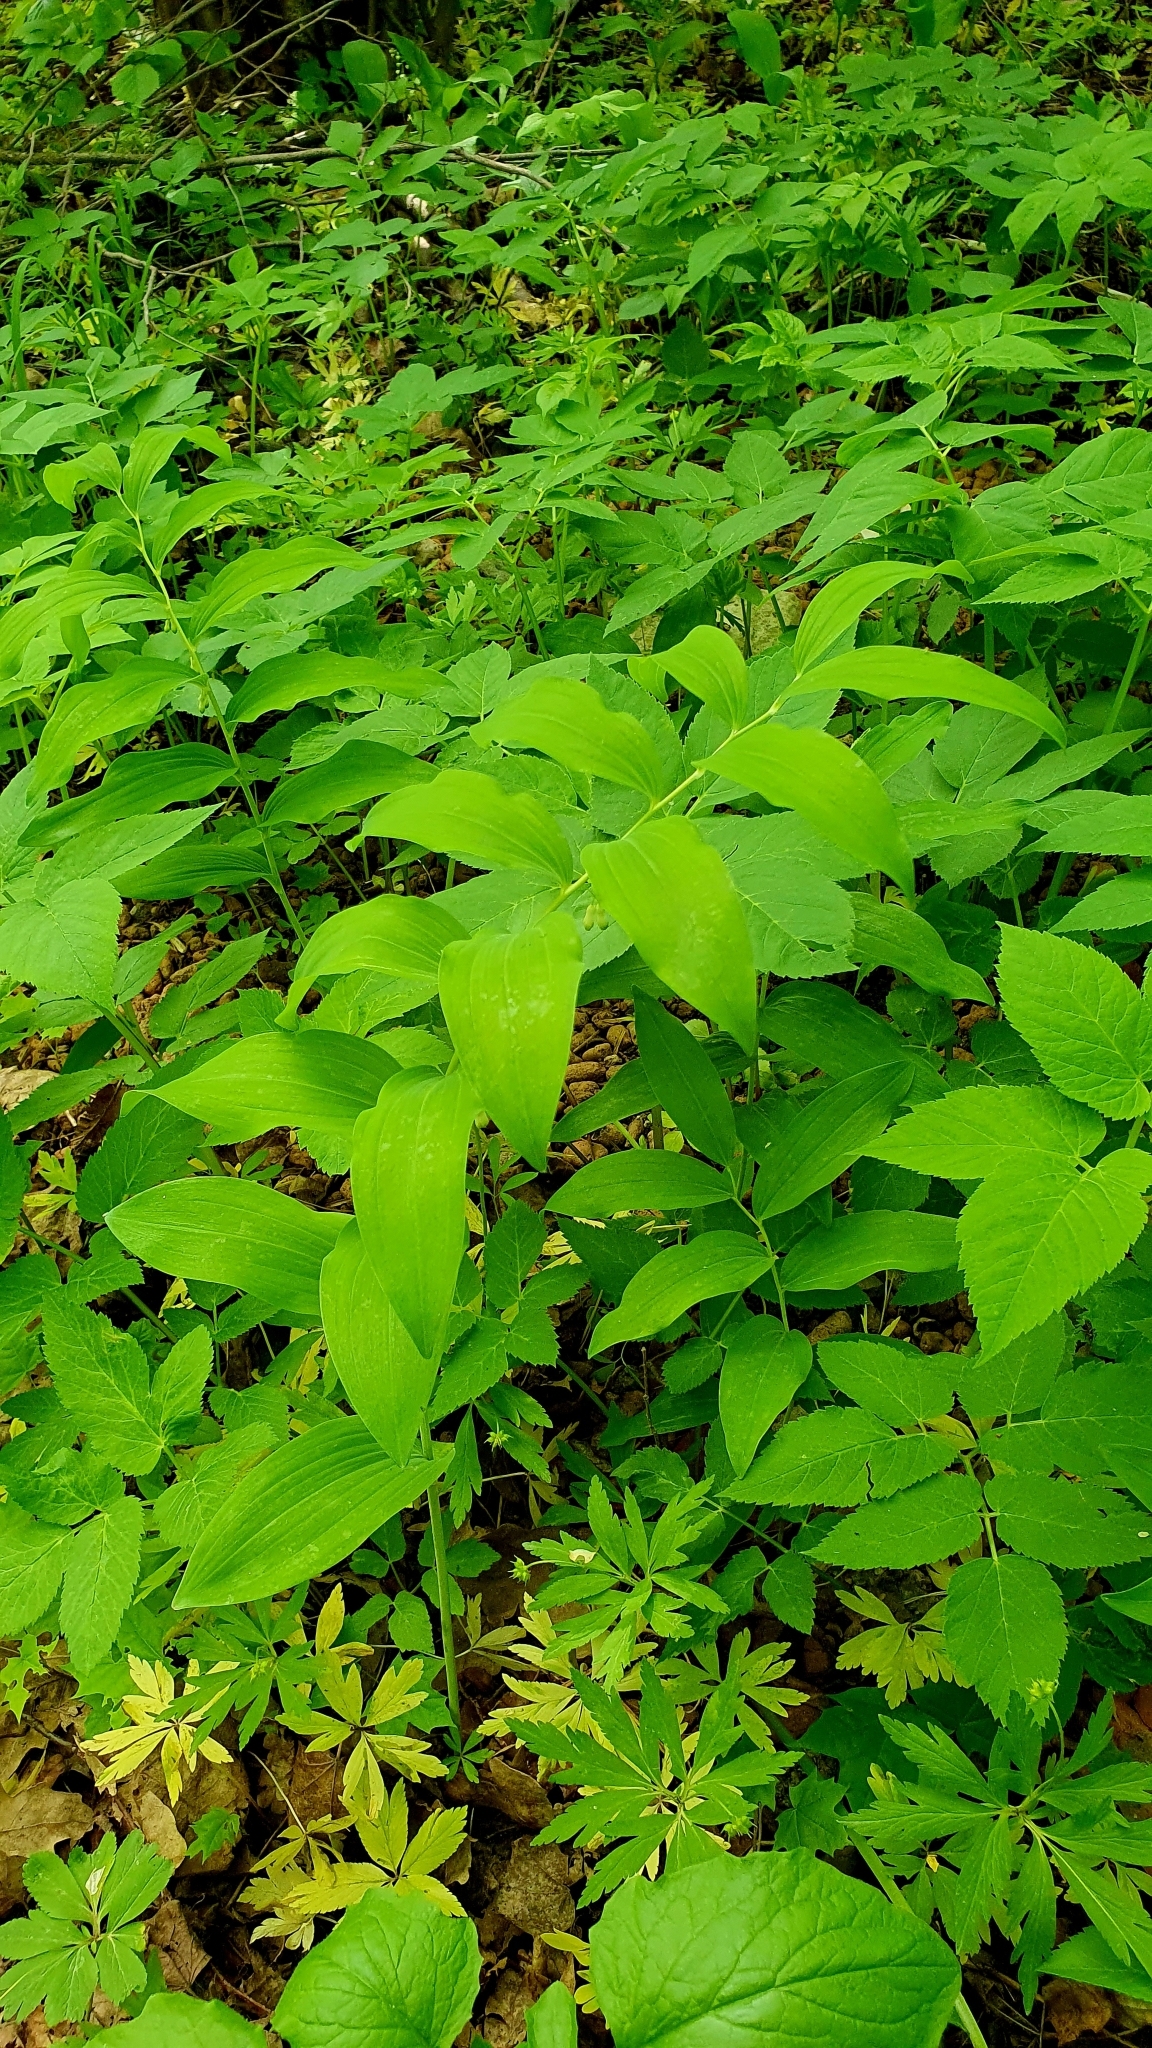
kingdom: Plantae
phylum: Tracheophyta
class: Liliopsida
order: Asparagales
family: Asparagaceae
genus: Polygonatum
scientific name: Polygonatum multiflorum
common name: Solomon's-seal
